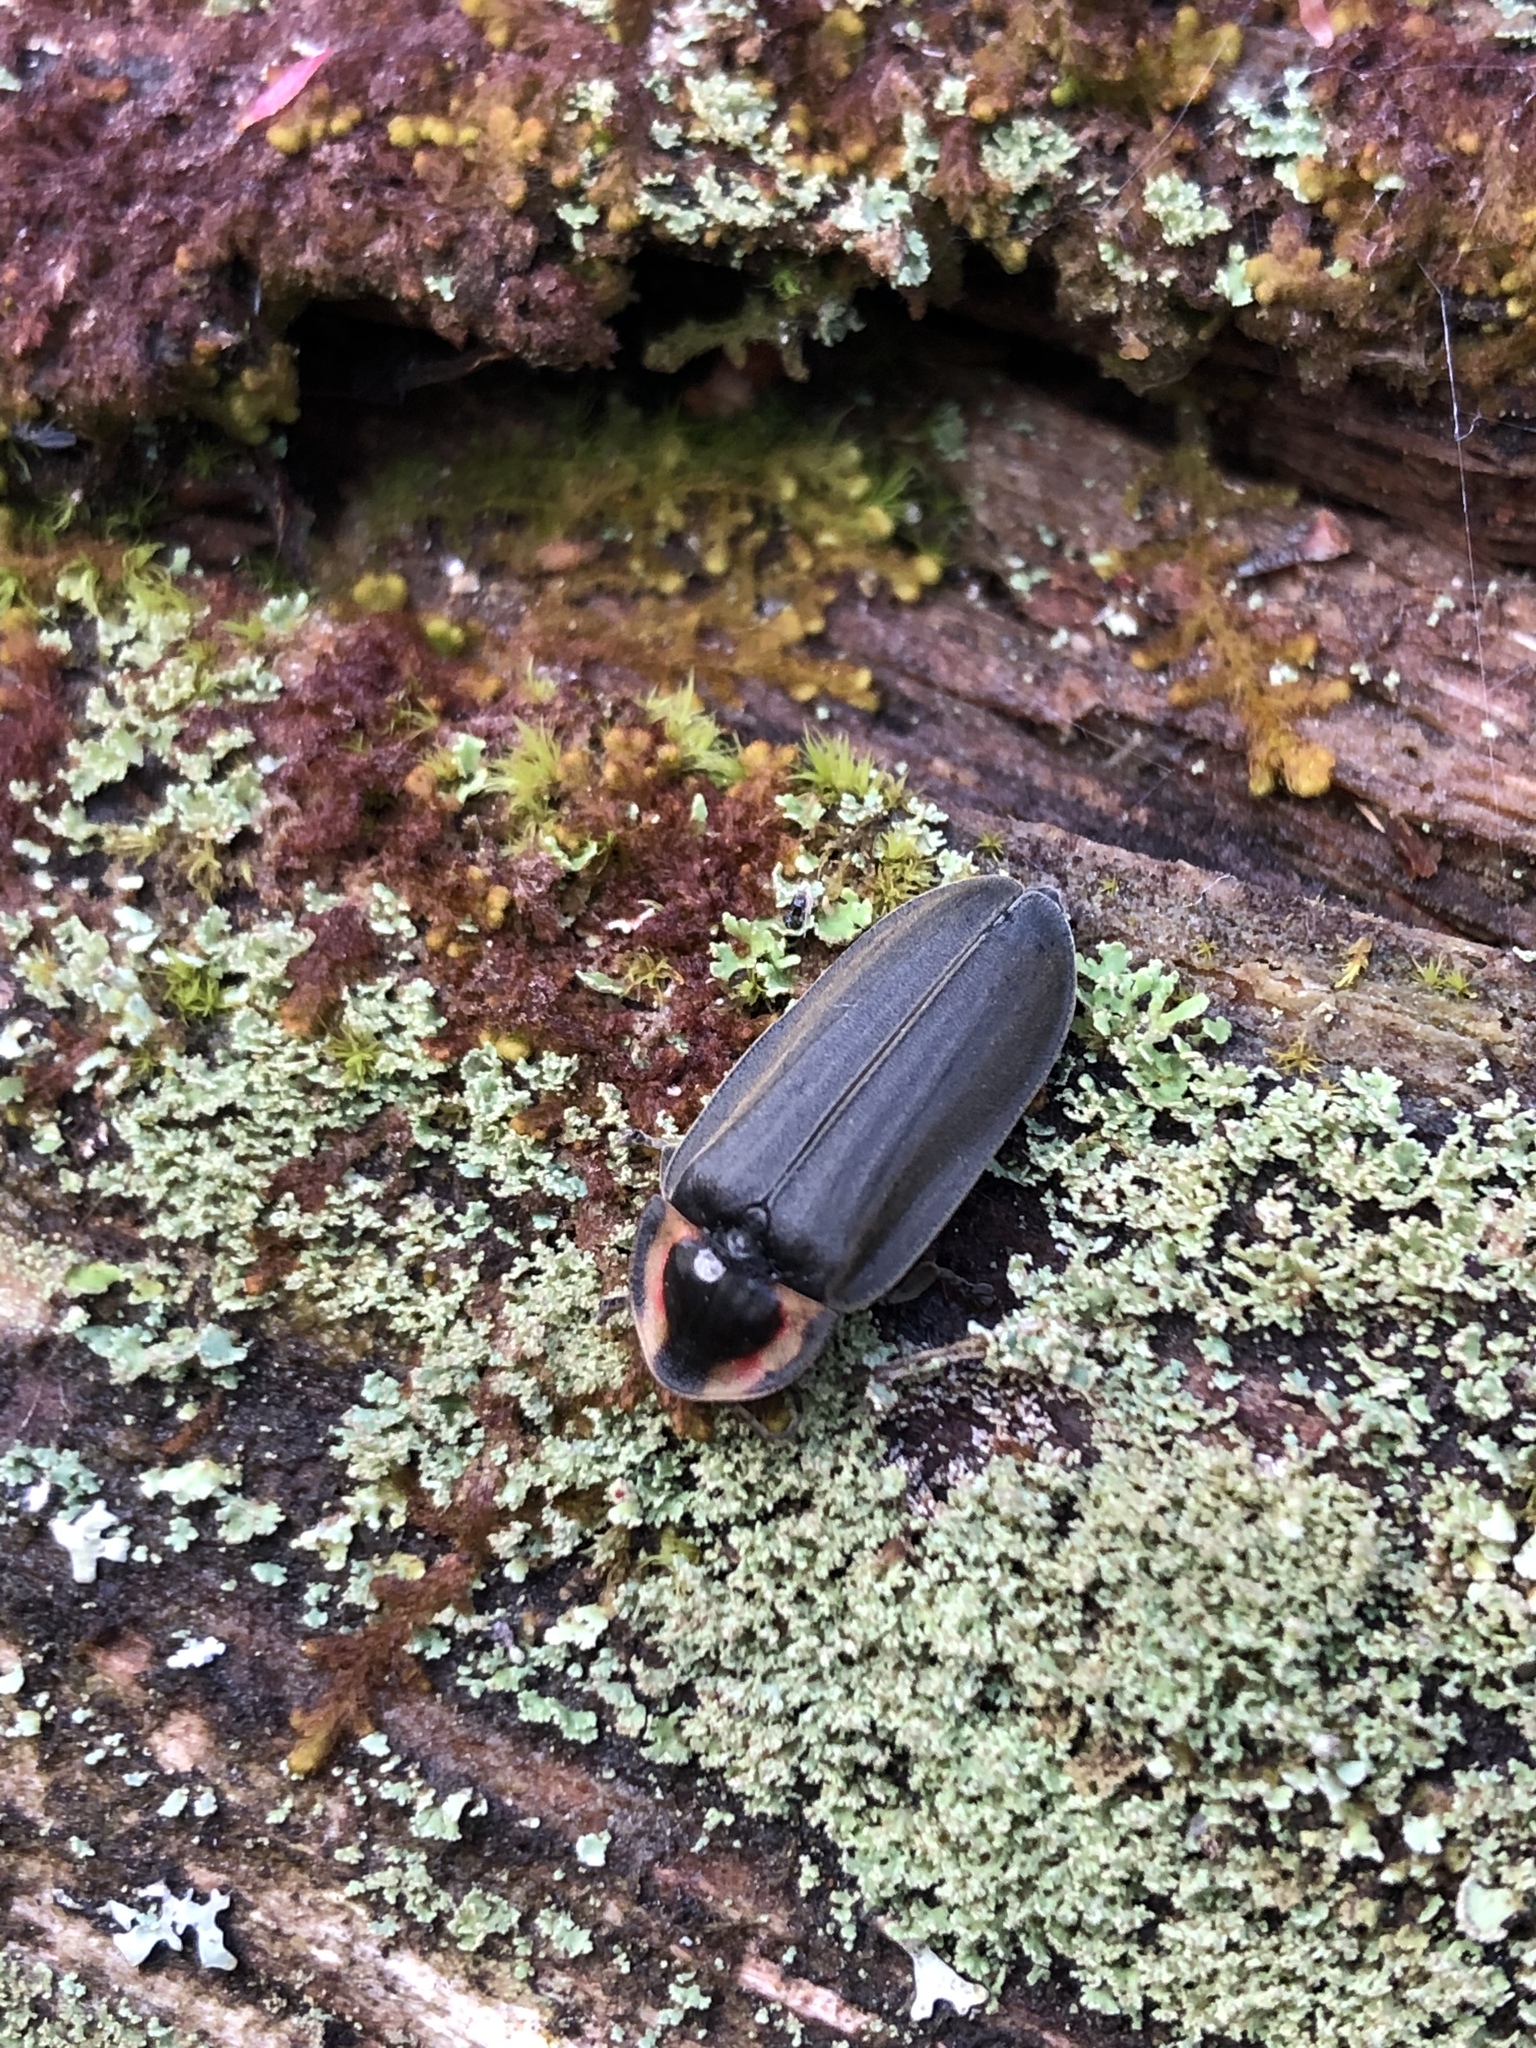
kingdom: Animalia
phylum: Arthropoda
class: Insecta
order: Coleoptera
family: Lampyridae
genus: Photinus
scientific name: Photinus corrusca
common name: Winter firefly
